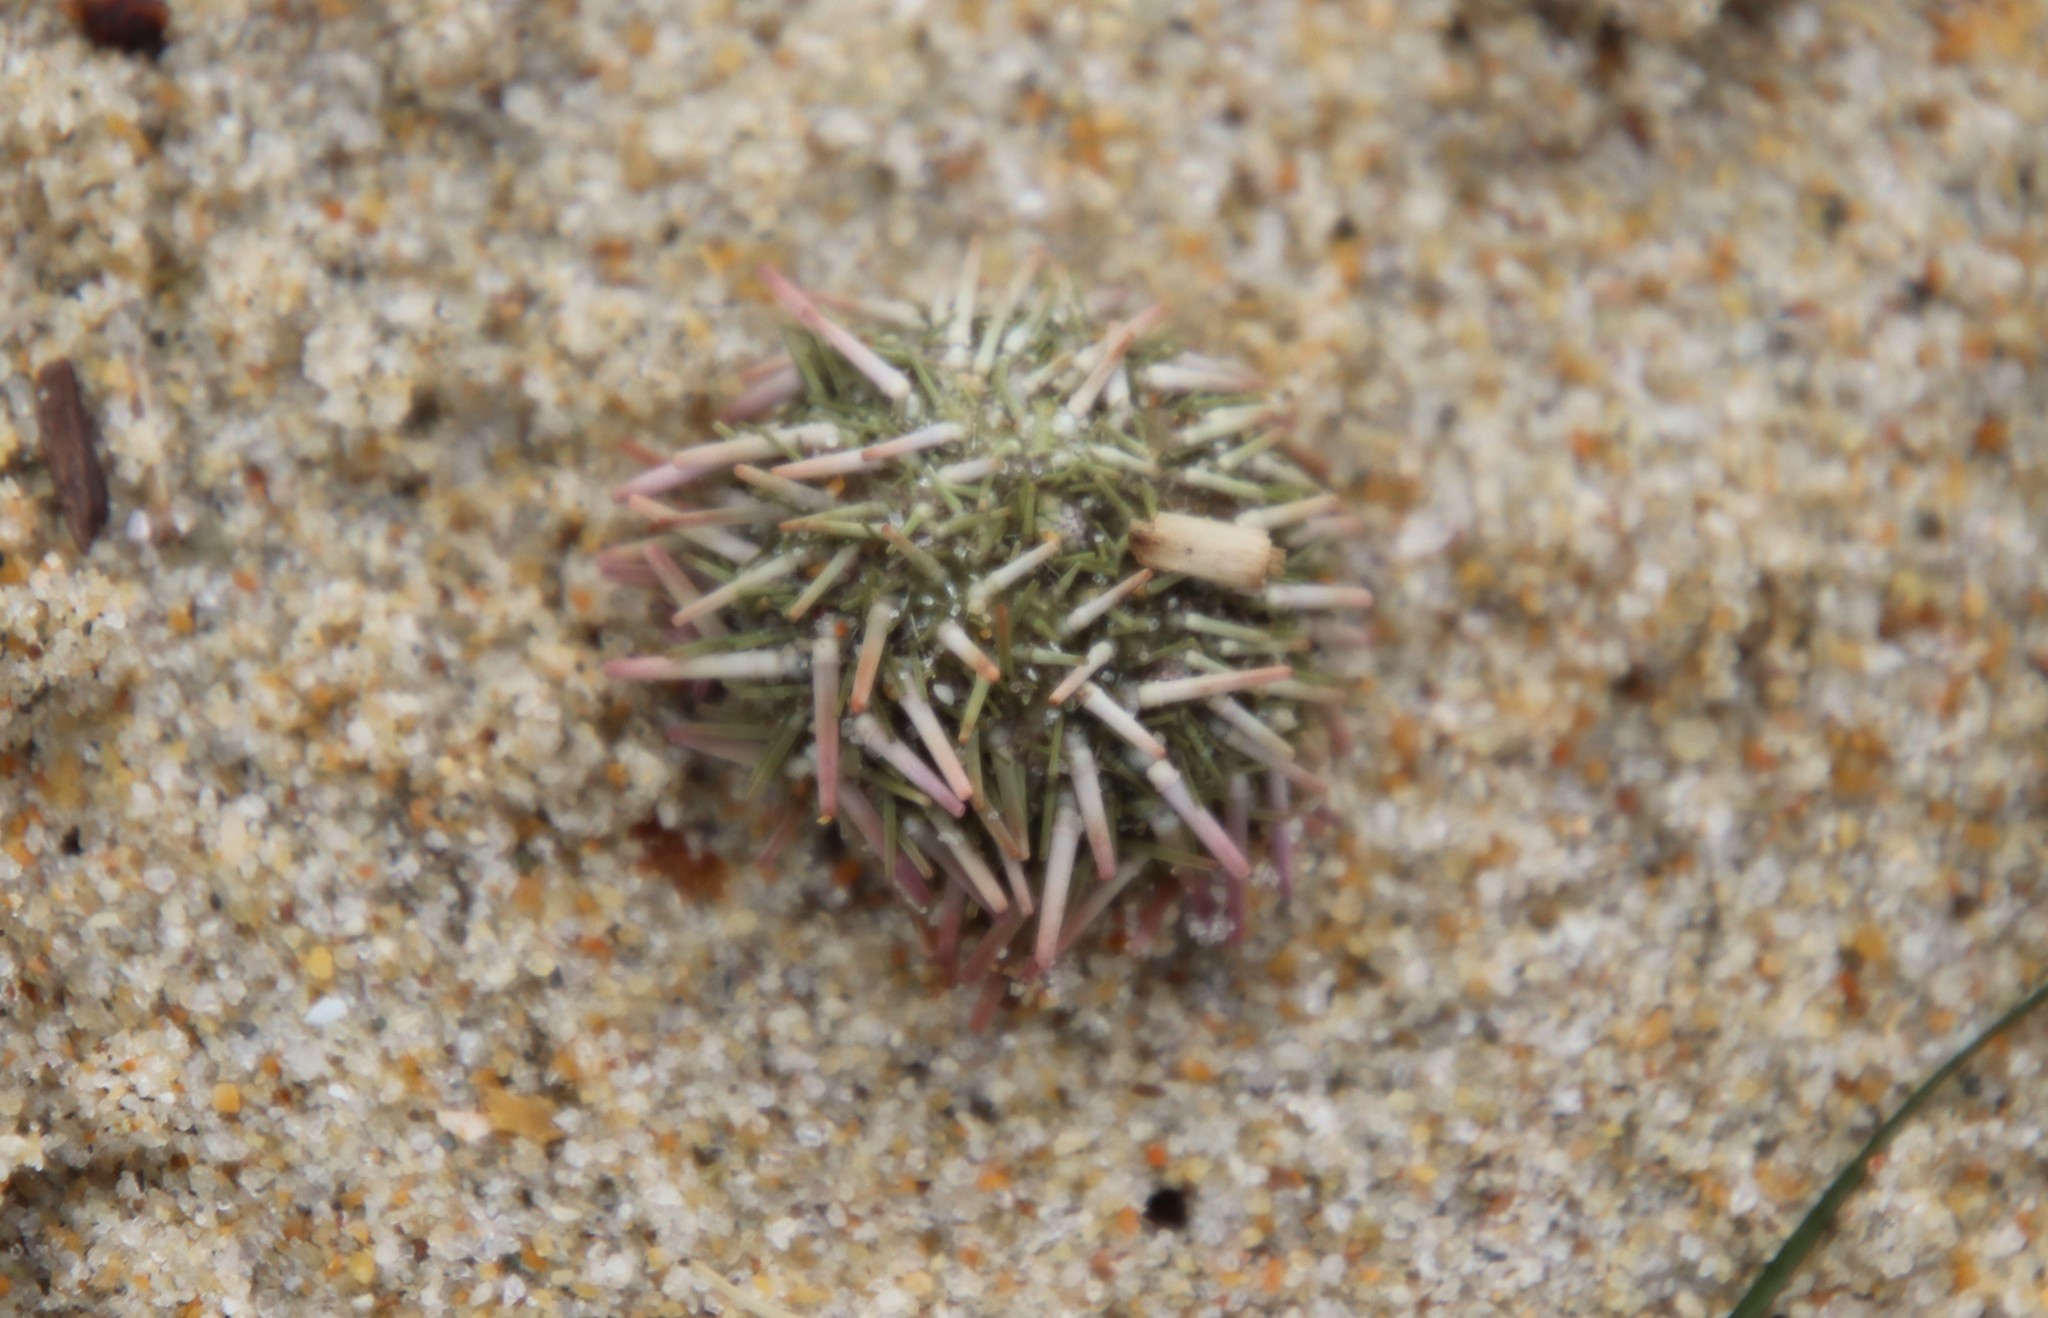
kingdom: Animalia
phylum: Echinodermata
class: Echinoidea
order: Camarodonta
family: Strongylocentrotidae
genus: Strongylocentrotus
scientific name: Strongylocentrotus purpuratus
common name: Purple sea urchin
